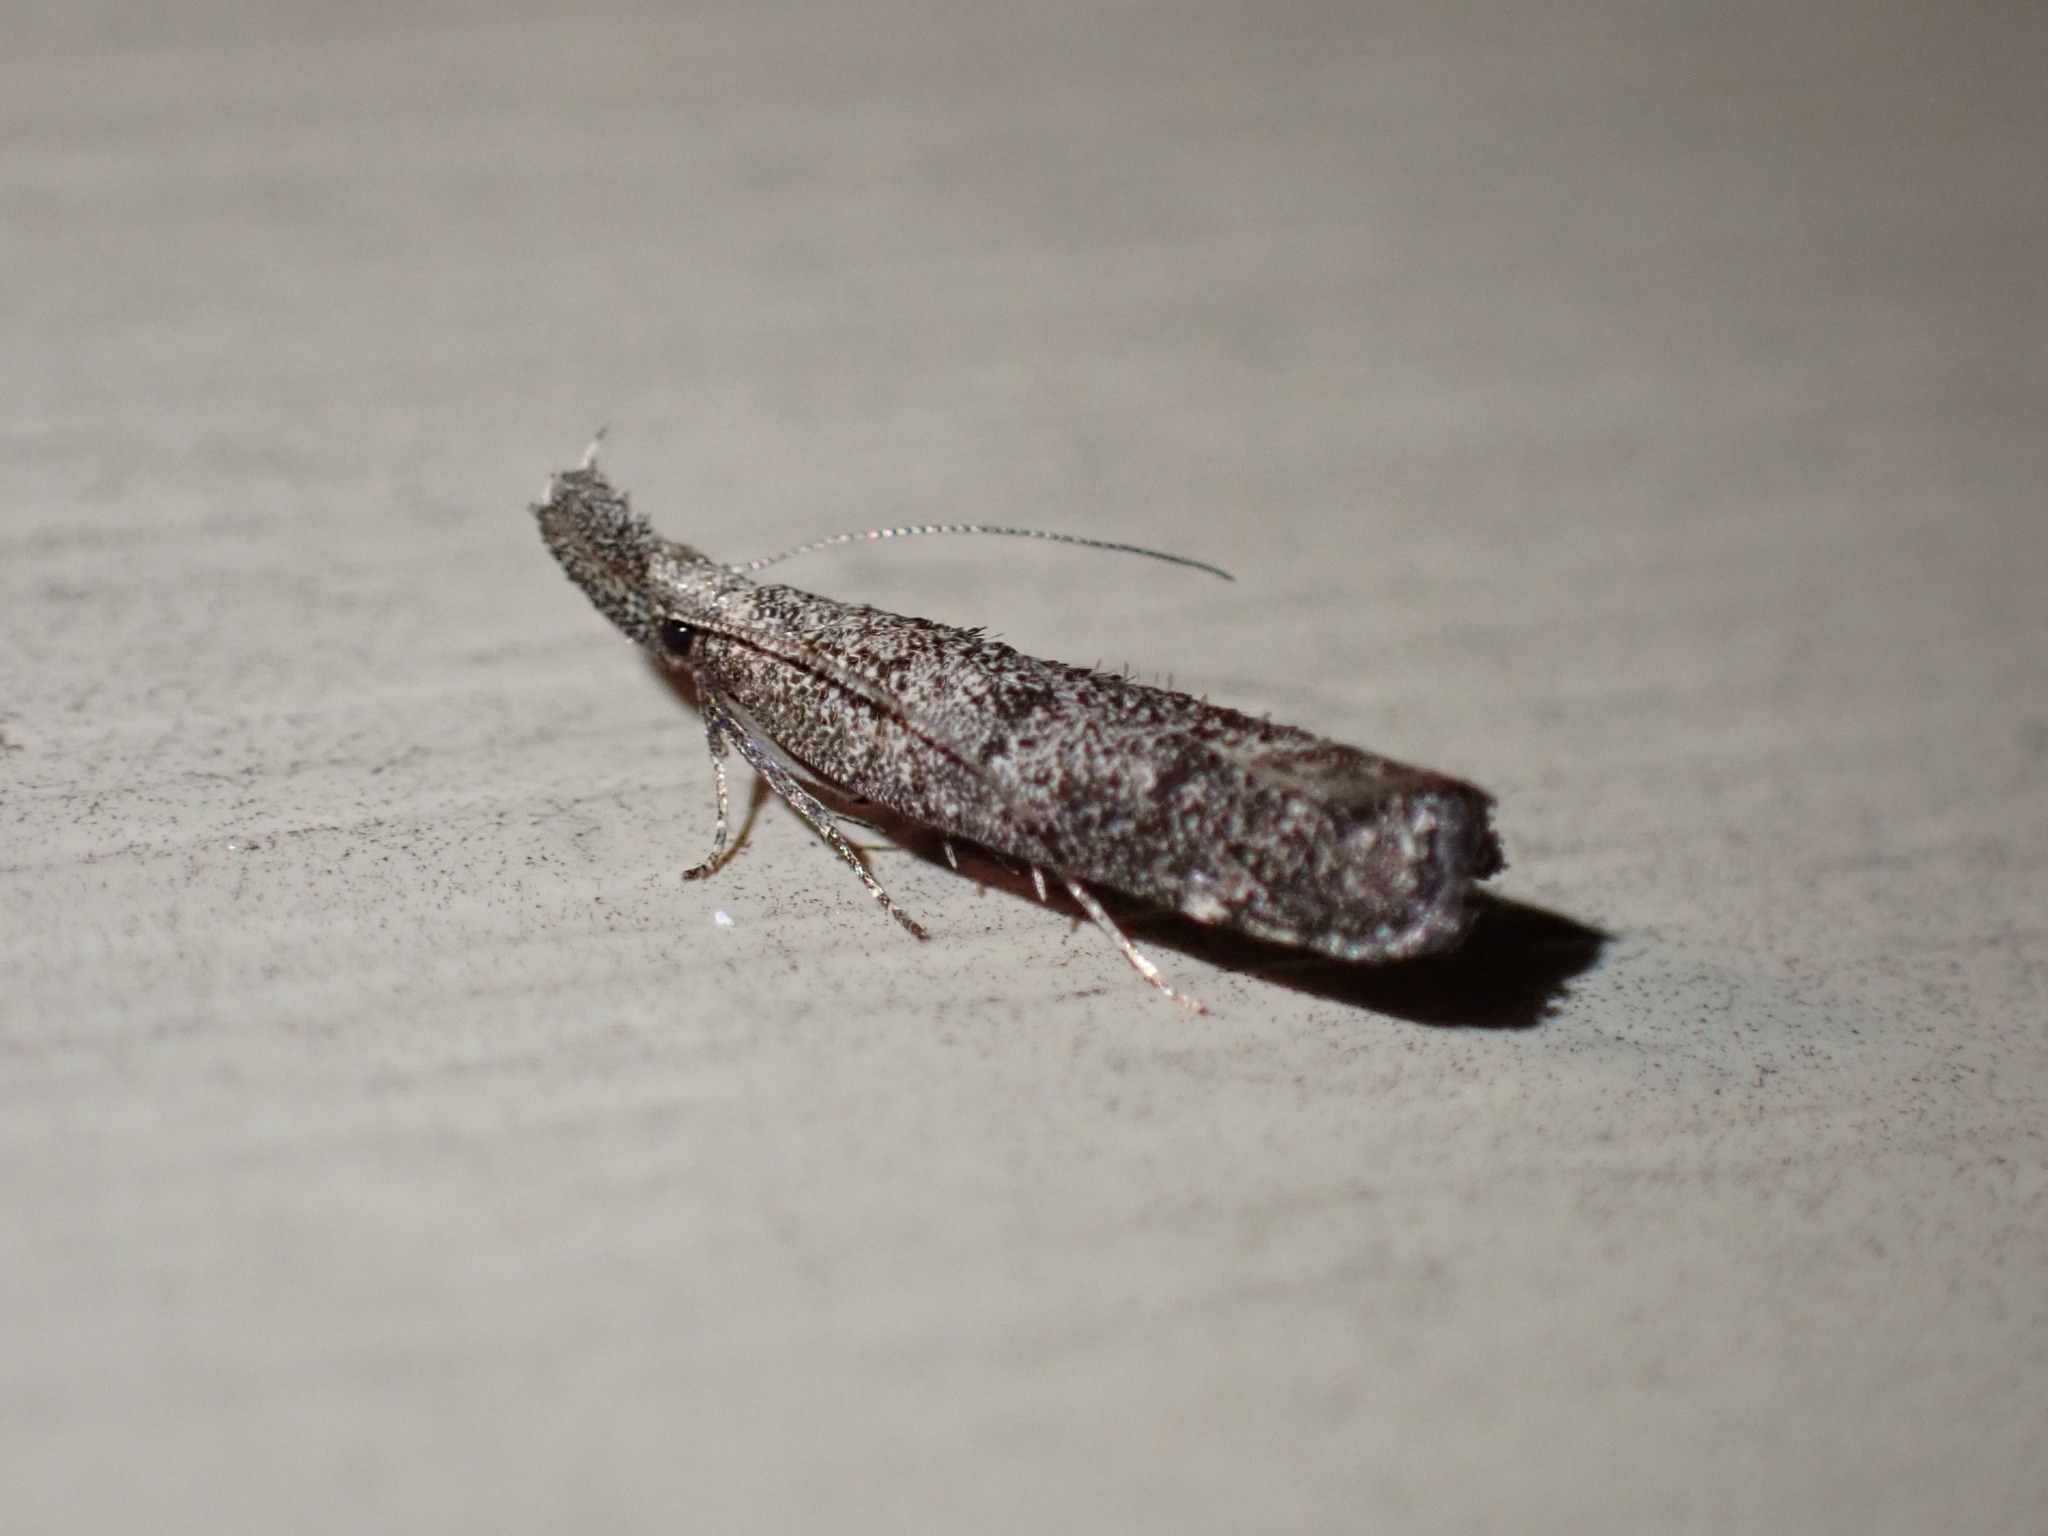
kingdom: Animalia
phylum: Arthropoda
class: Insecta
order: Lepidoptera
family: Gelechiidae
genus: Dichomeris
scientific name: Dichomeris inversella
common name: Inverse dichomeris moth
